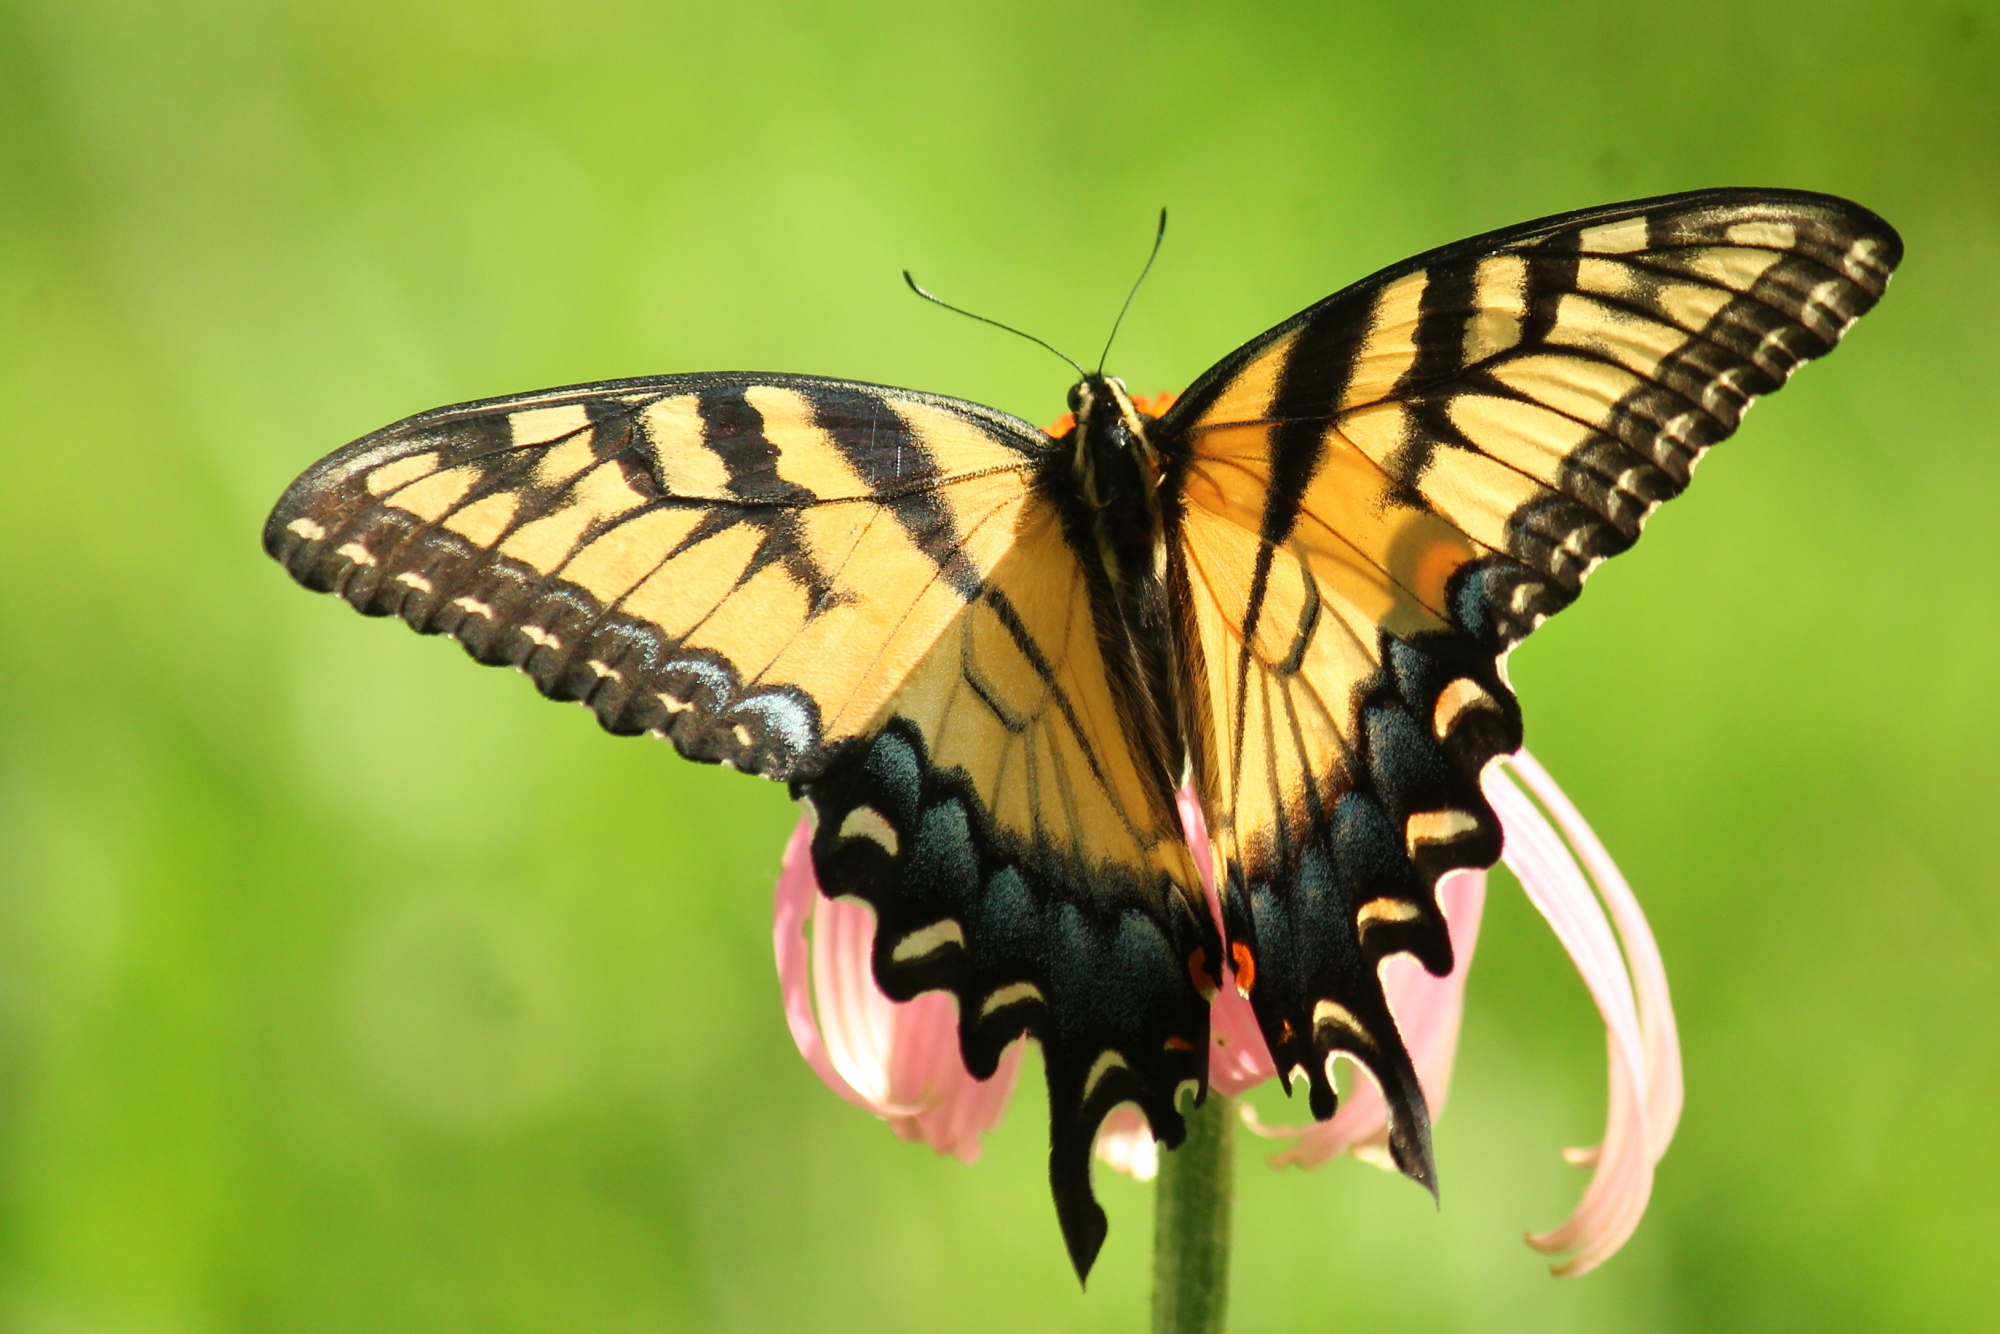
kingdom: Animalia
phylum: Arthropoda
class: Insecta
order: Lepidoptera
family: Papilionidae
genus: Papilio
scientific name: Papilio glaucus
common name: Tiger swallowtail
